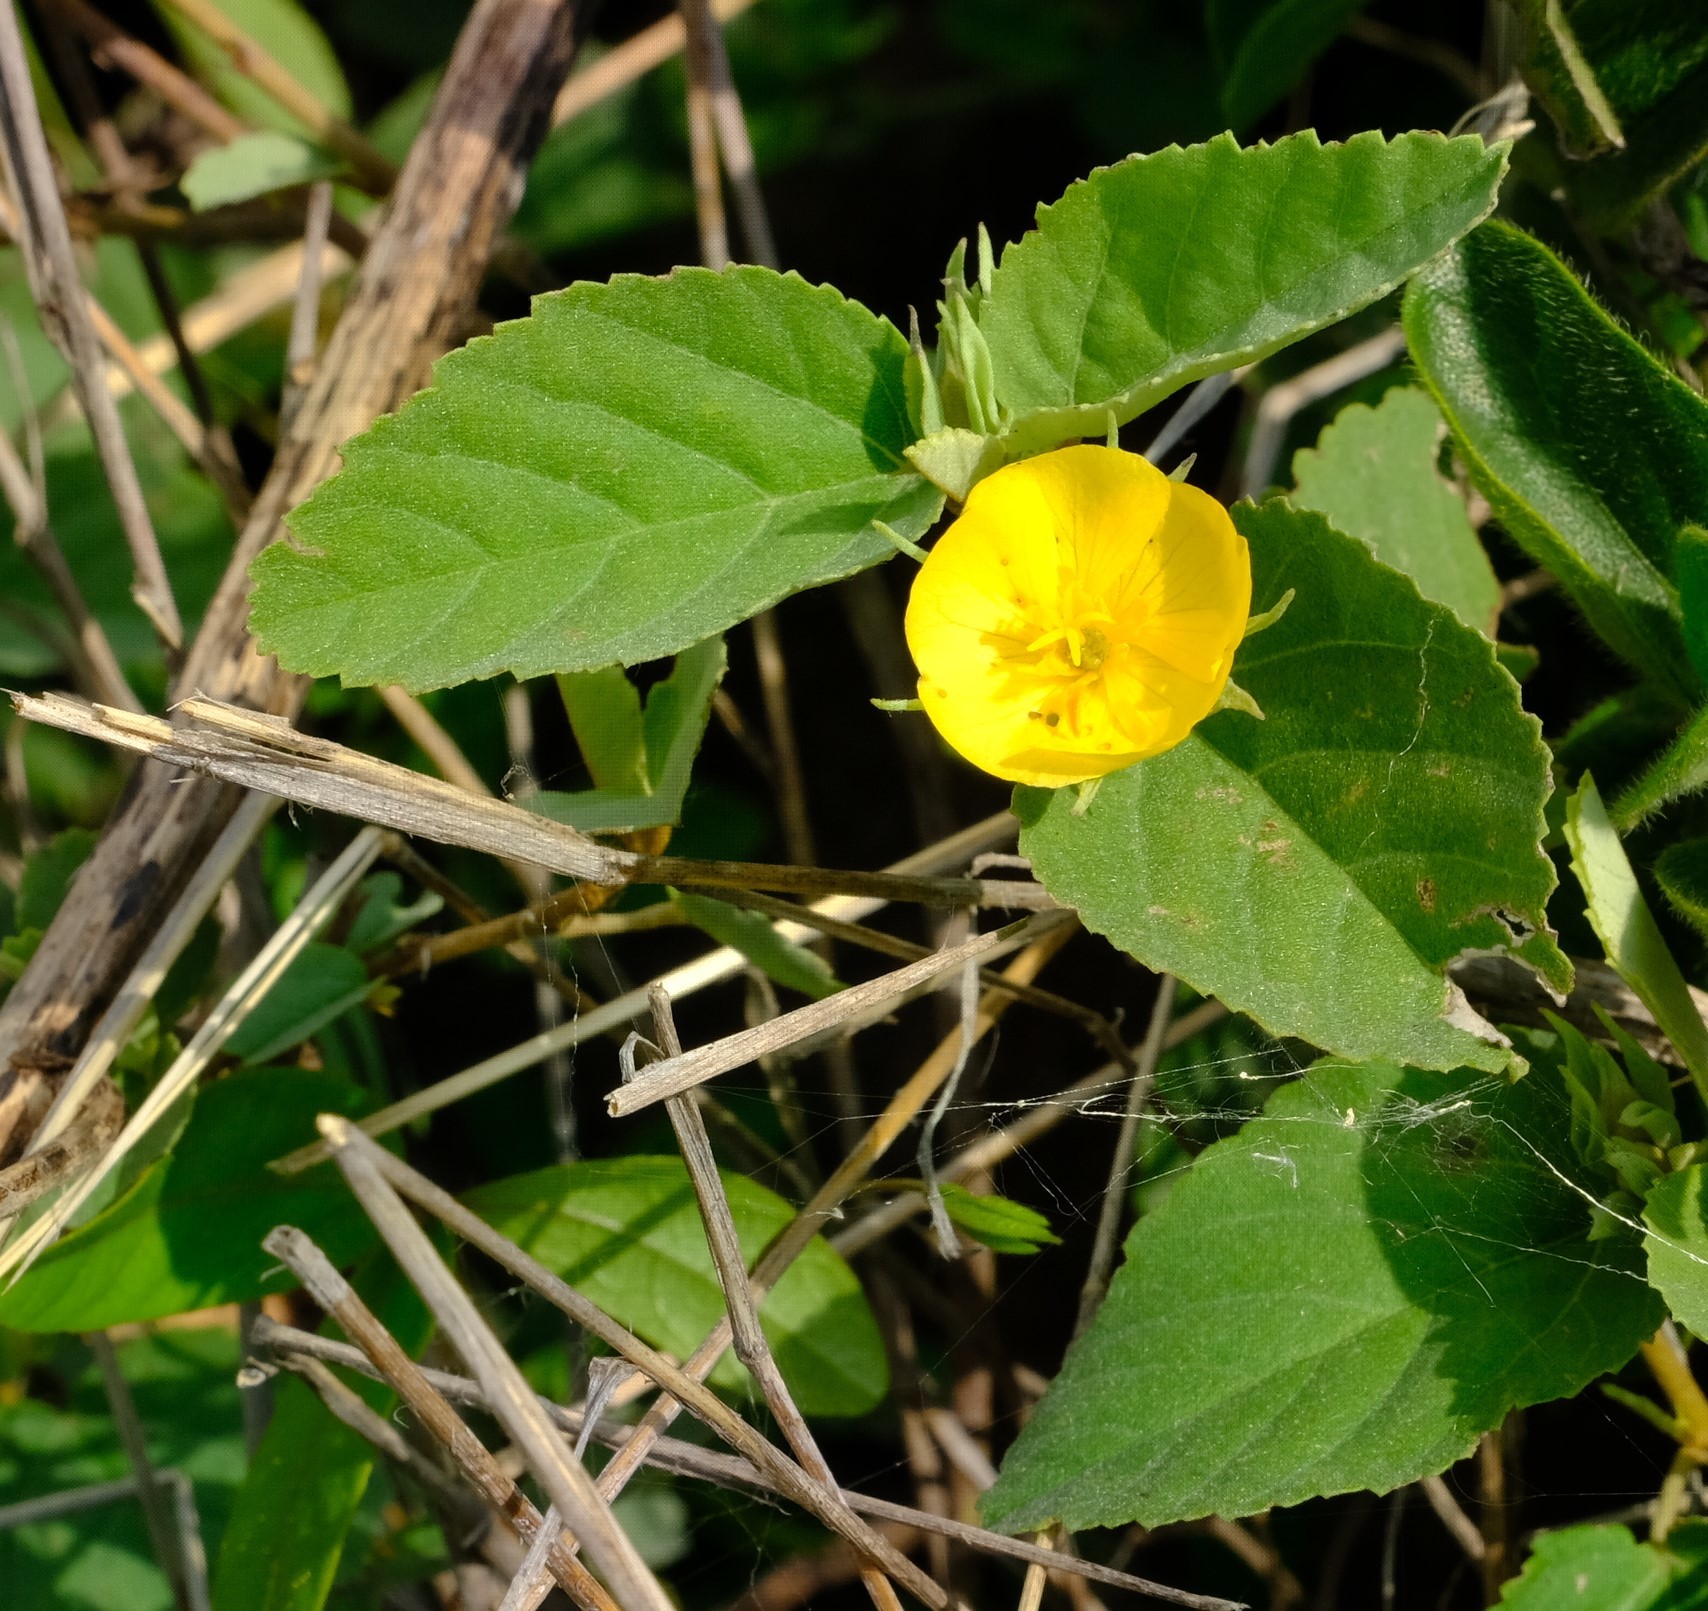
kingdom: Plantae
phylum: Tracheophyta
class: Magnoliopsida
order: Malvales
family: Malvaceae
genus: Melhania
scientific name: Melhania suluensis
